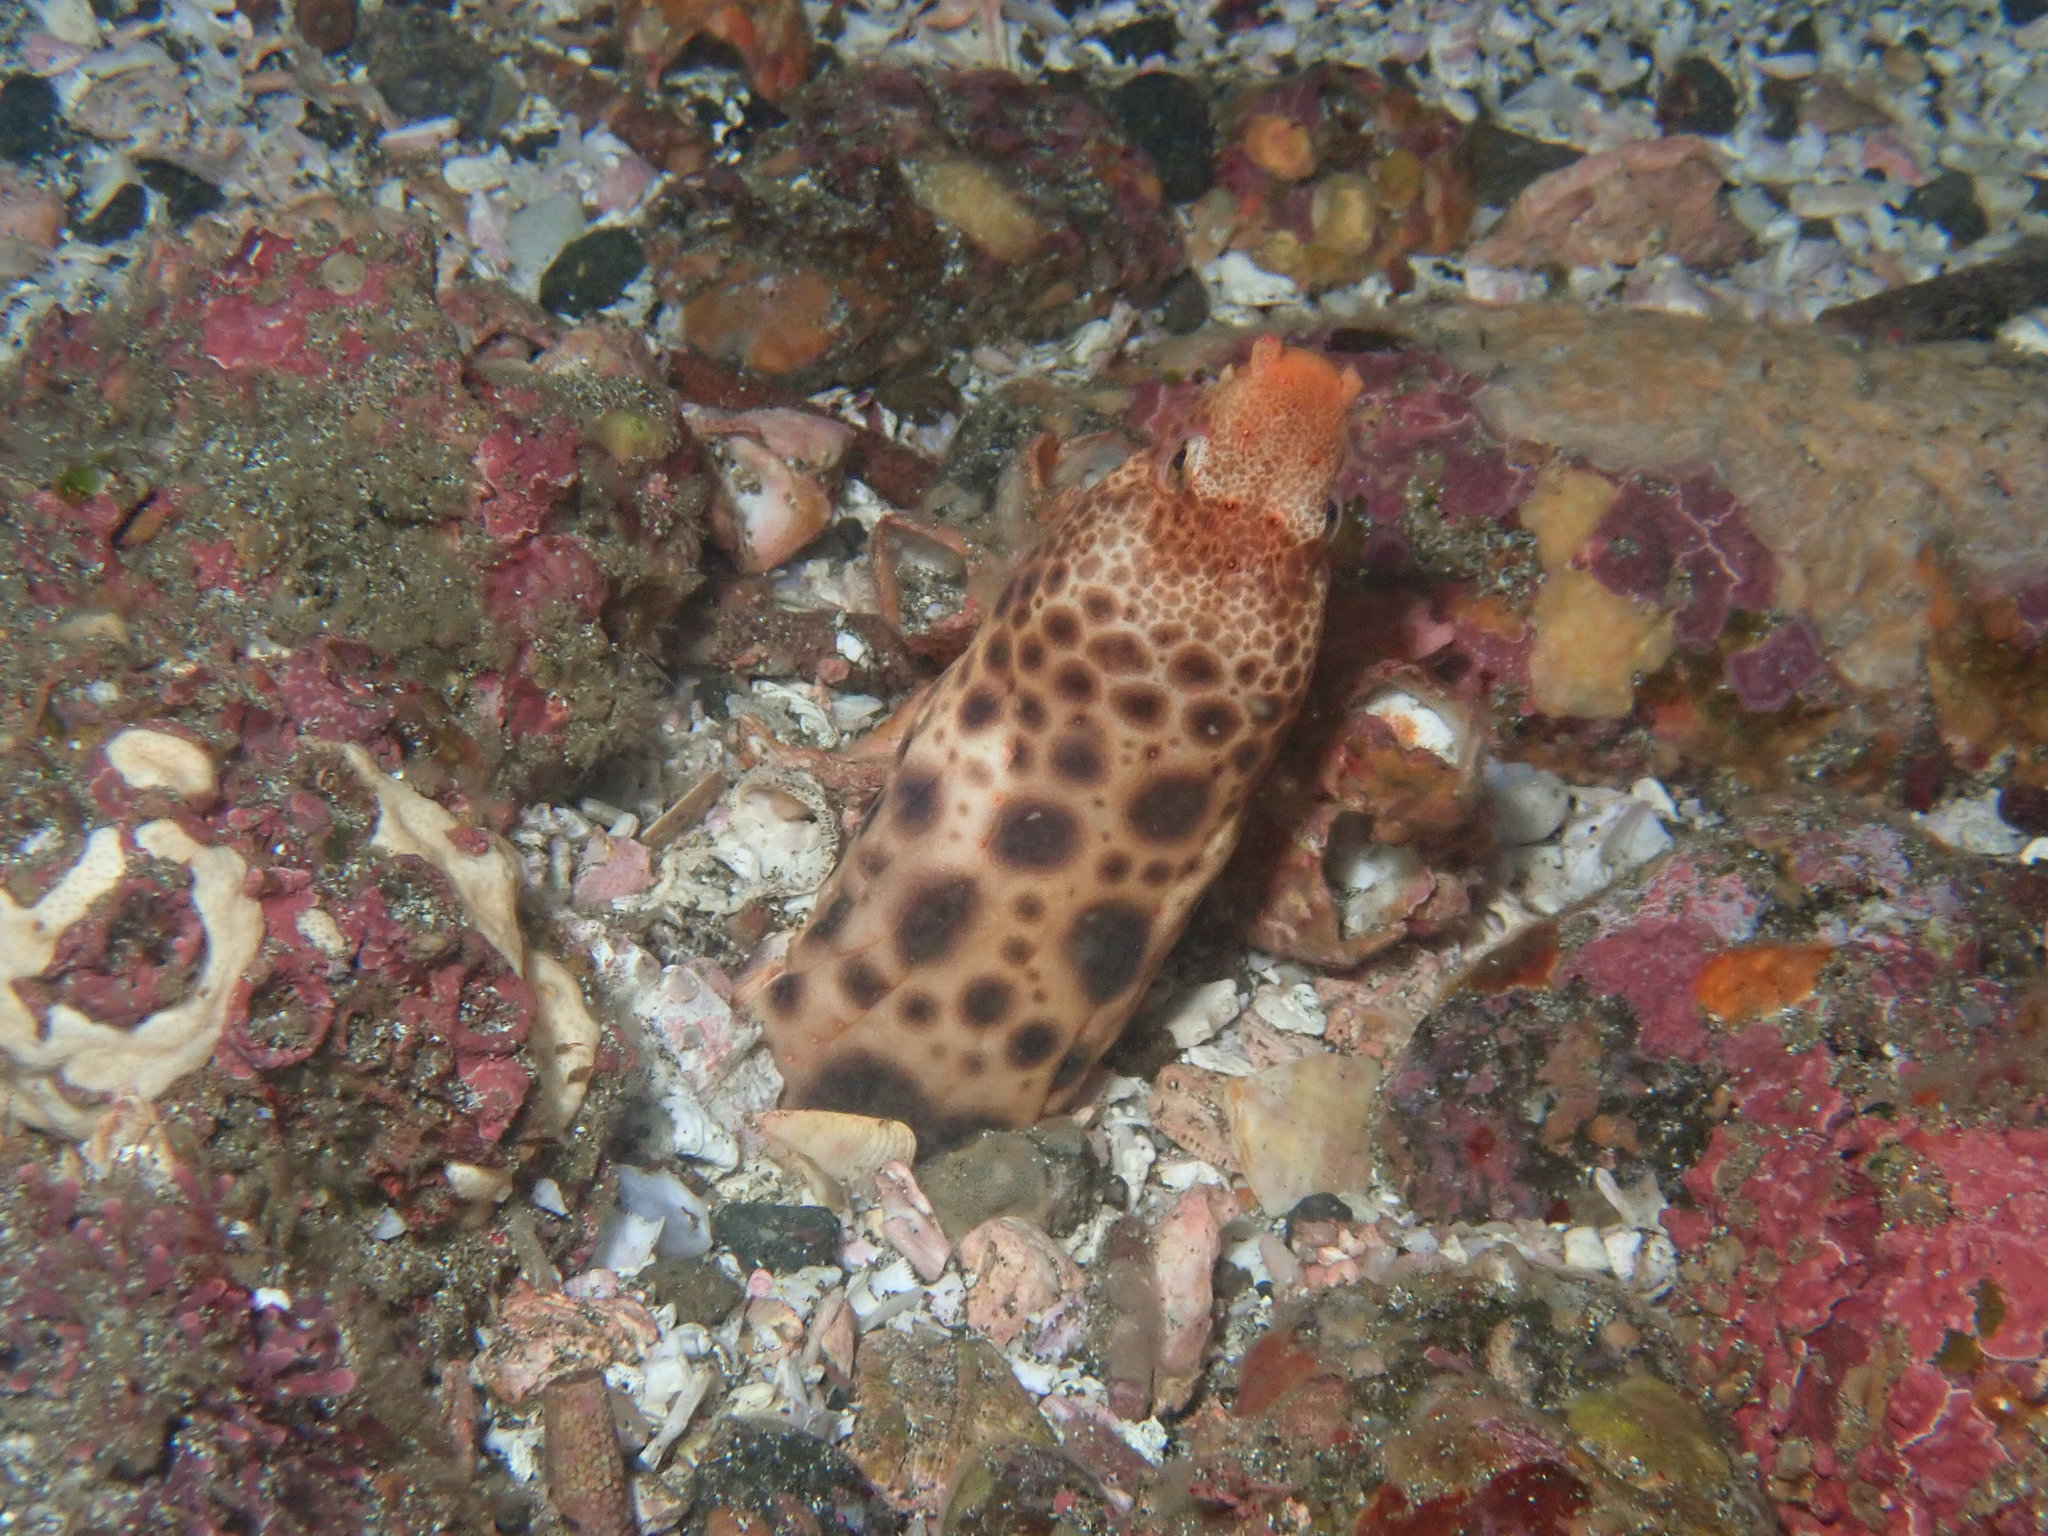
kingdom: Animalia
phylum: Chordata
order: Anguilliformes
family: Ophichthidae
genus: Herpetoichthys
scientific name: Herpetoichthys fossatus
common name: Mustachioed snake eel
